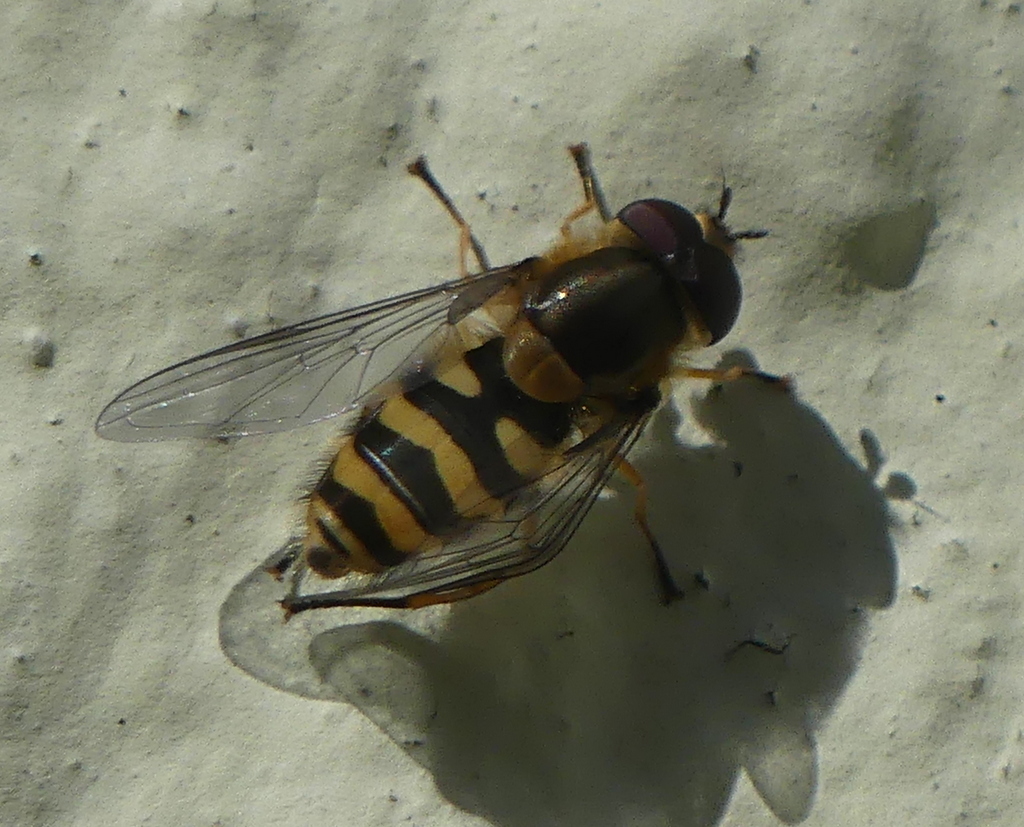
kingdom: Animalia
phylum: Arthropoda
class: Insecta
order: Diptera
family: Syrphidae
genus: Syrphus
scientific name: Syrphus
